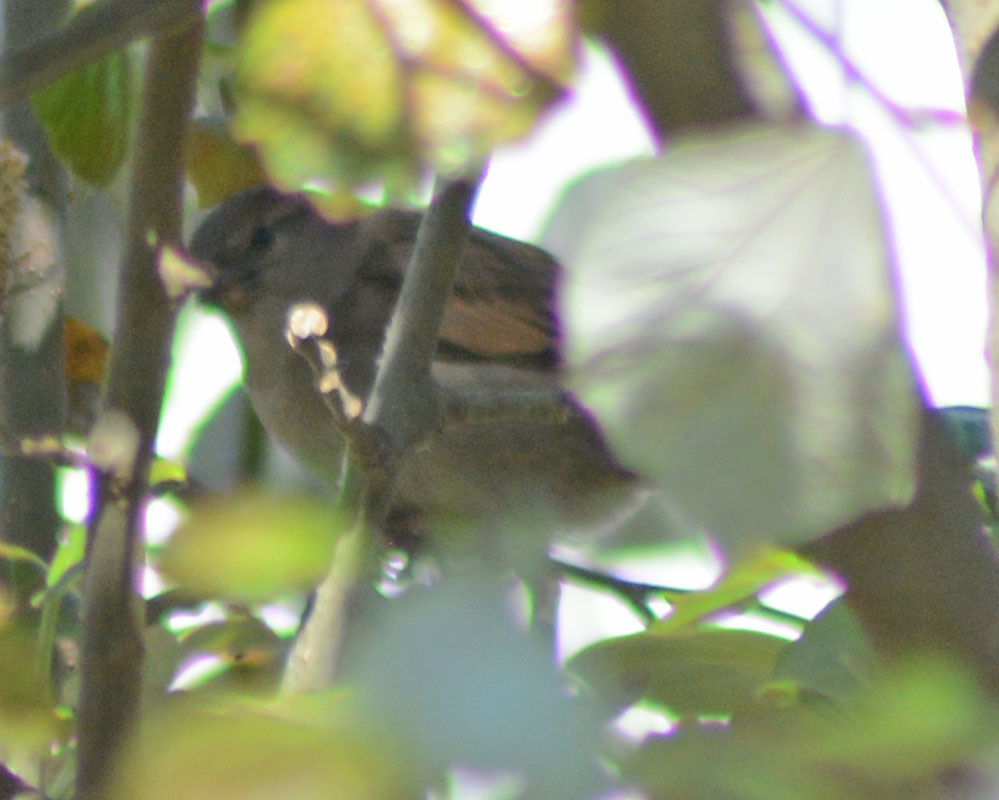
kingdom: Animalia
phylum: Chordata
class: Aves
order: Passeriformes
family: Passeridae
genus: Passer
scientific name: Passer domesticus
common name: House sparrow
